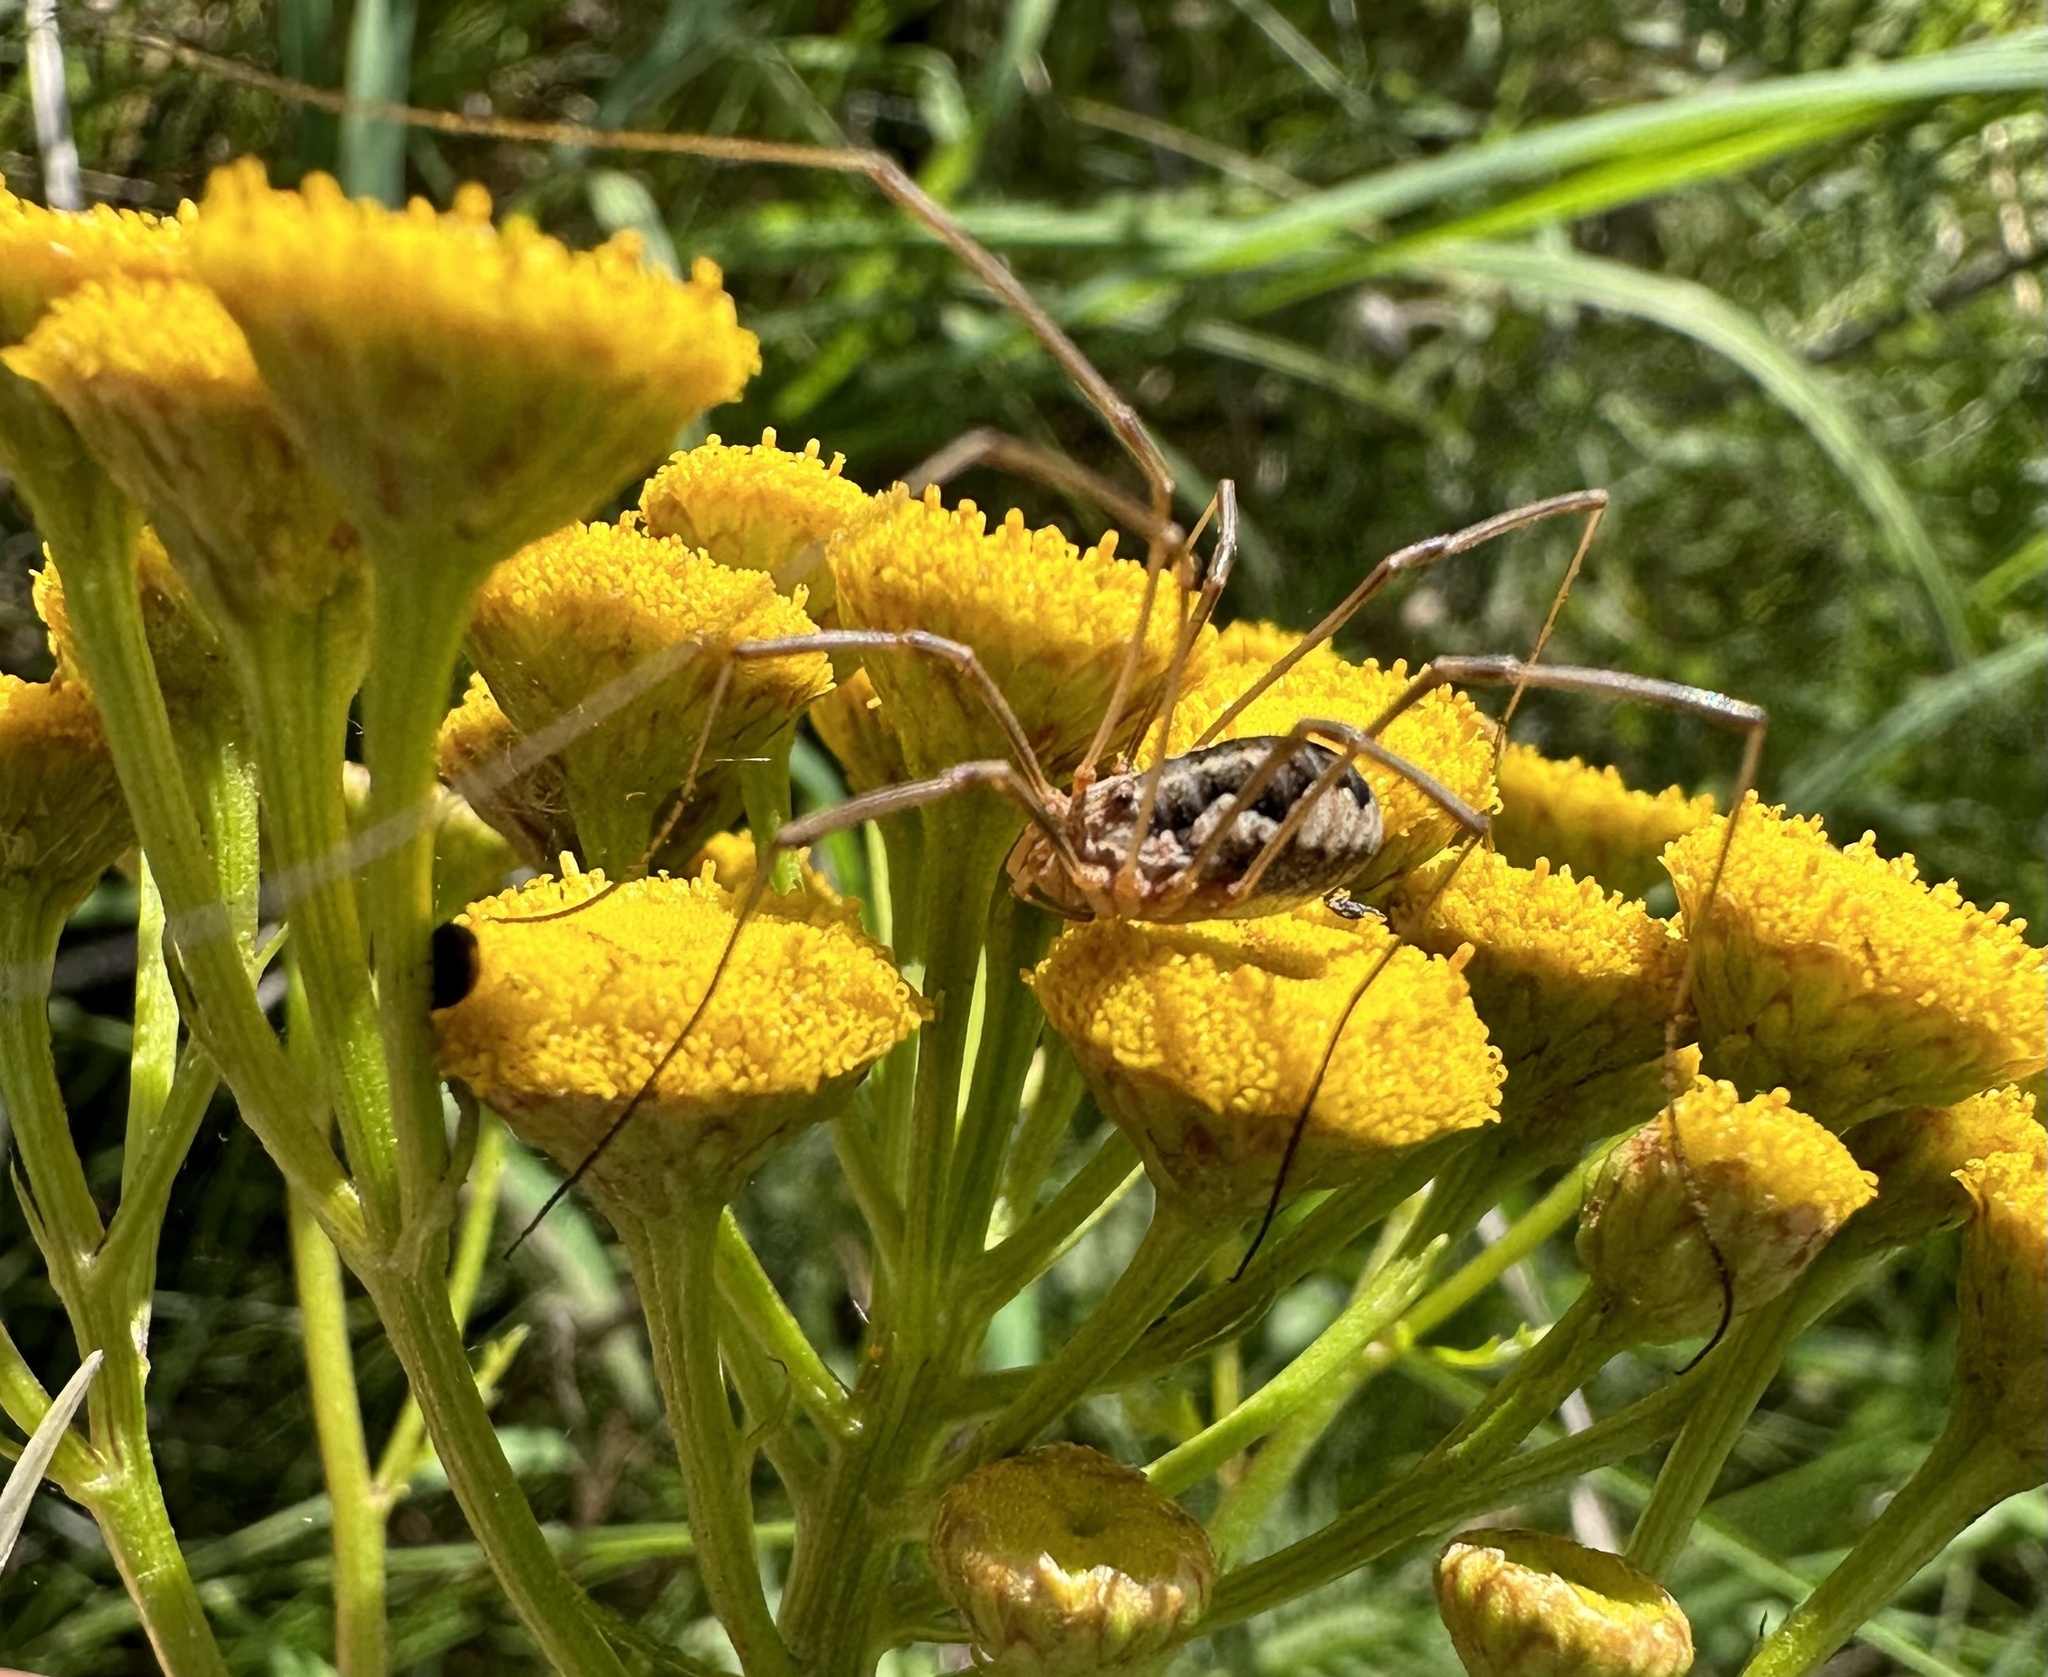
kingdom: Animalia
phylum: Arthropoda
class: Arachnida
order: Opiliones
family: Phalangiidae
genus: Phalangium
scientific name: Phalangium opilio
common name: Daddy longleg
